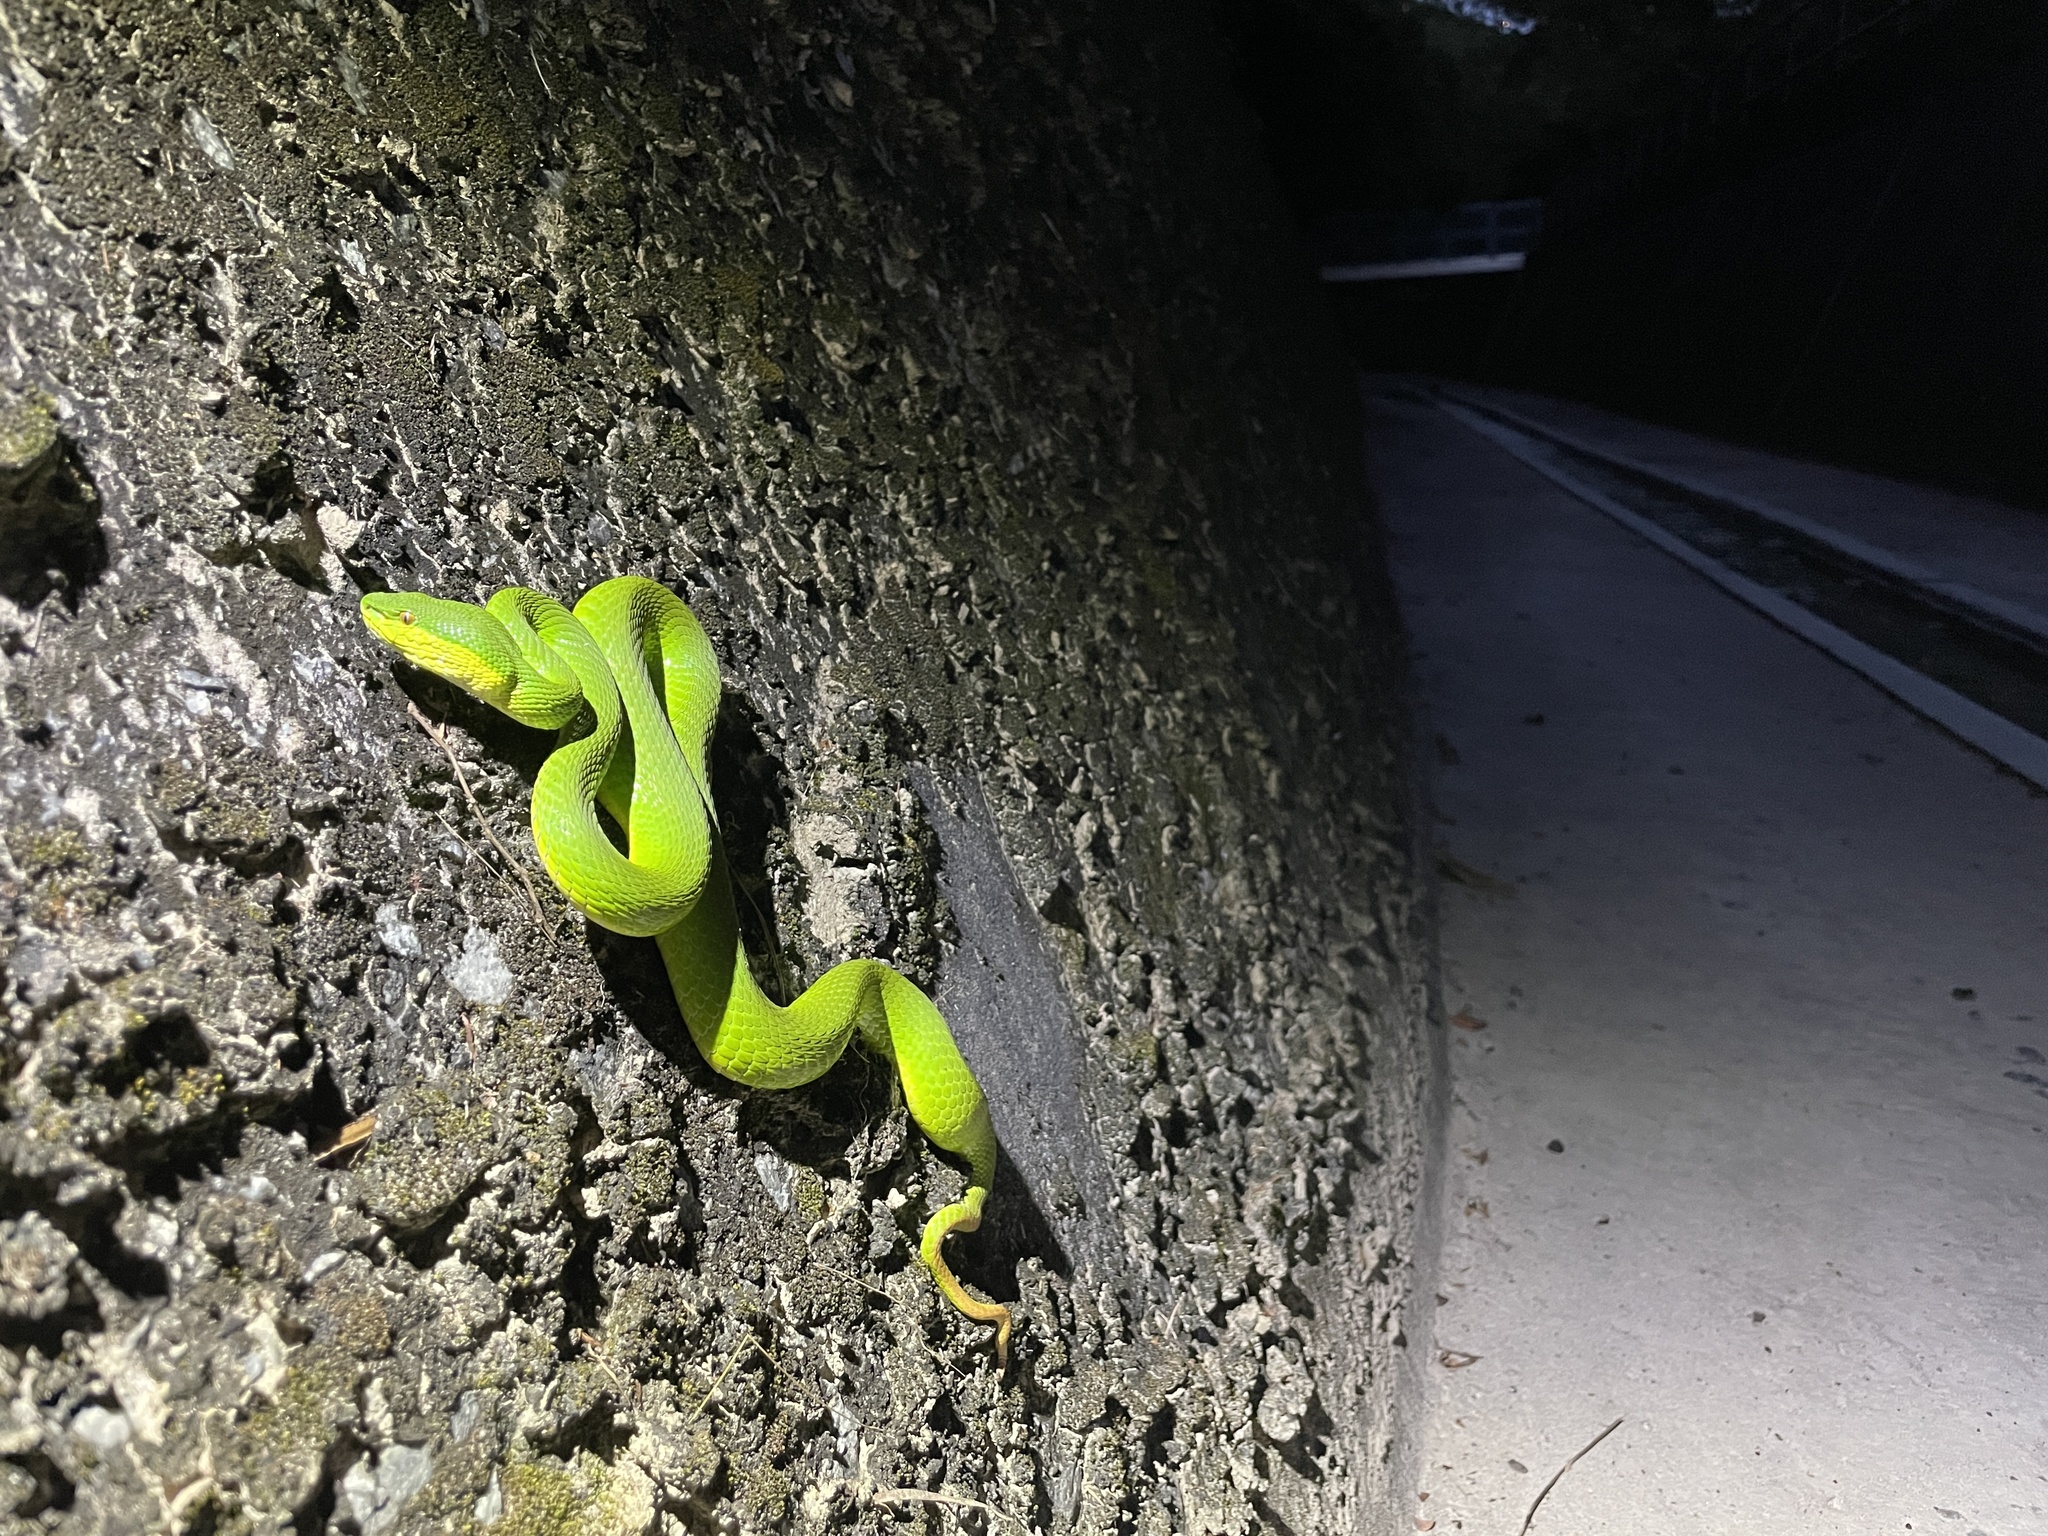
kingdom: Animalia
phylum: Chordata
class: Squamata
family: Viperidae
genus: Trimeresurus
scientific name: Trimeresurus albolabris
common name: White-lipped pitviper
